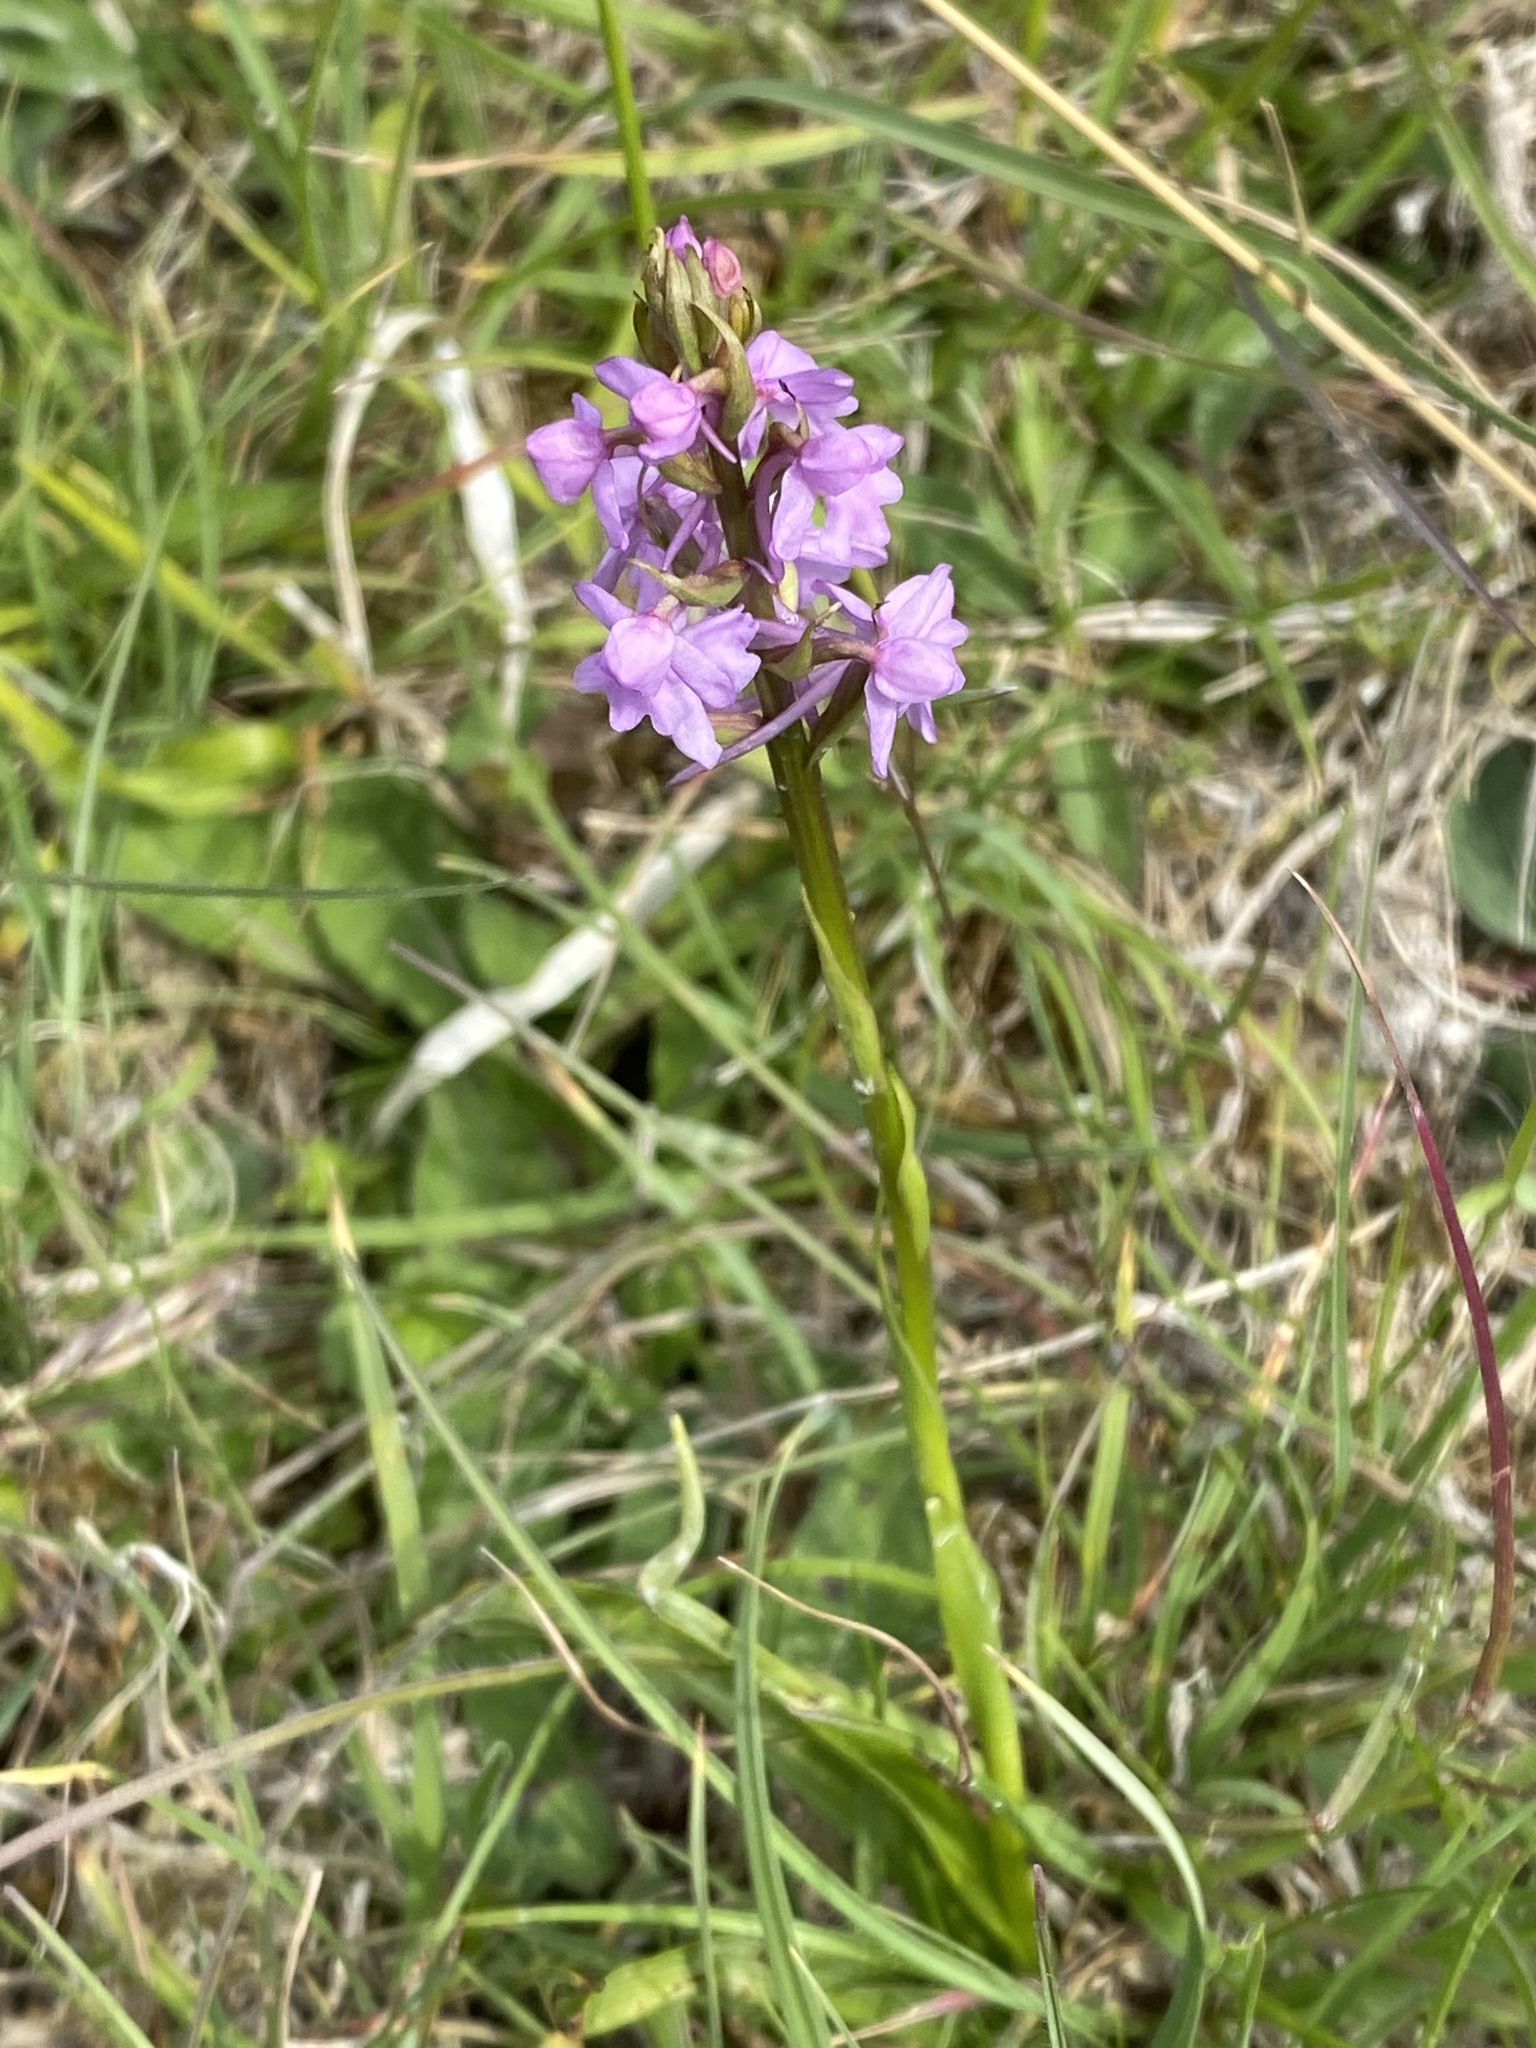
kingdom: Plantae
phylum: Tracheophyta
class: Liliopsida
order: Asparagales
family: Orchidaceae
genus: Gymnadenia
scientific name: Gymnadenia conopsea
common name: Fragrant orchid
